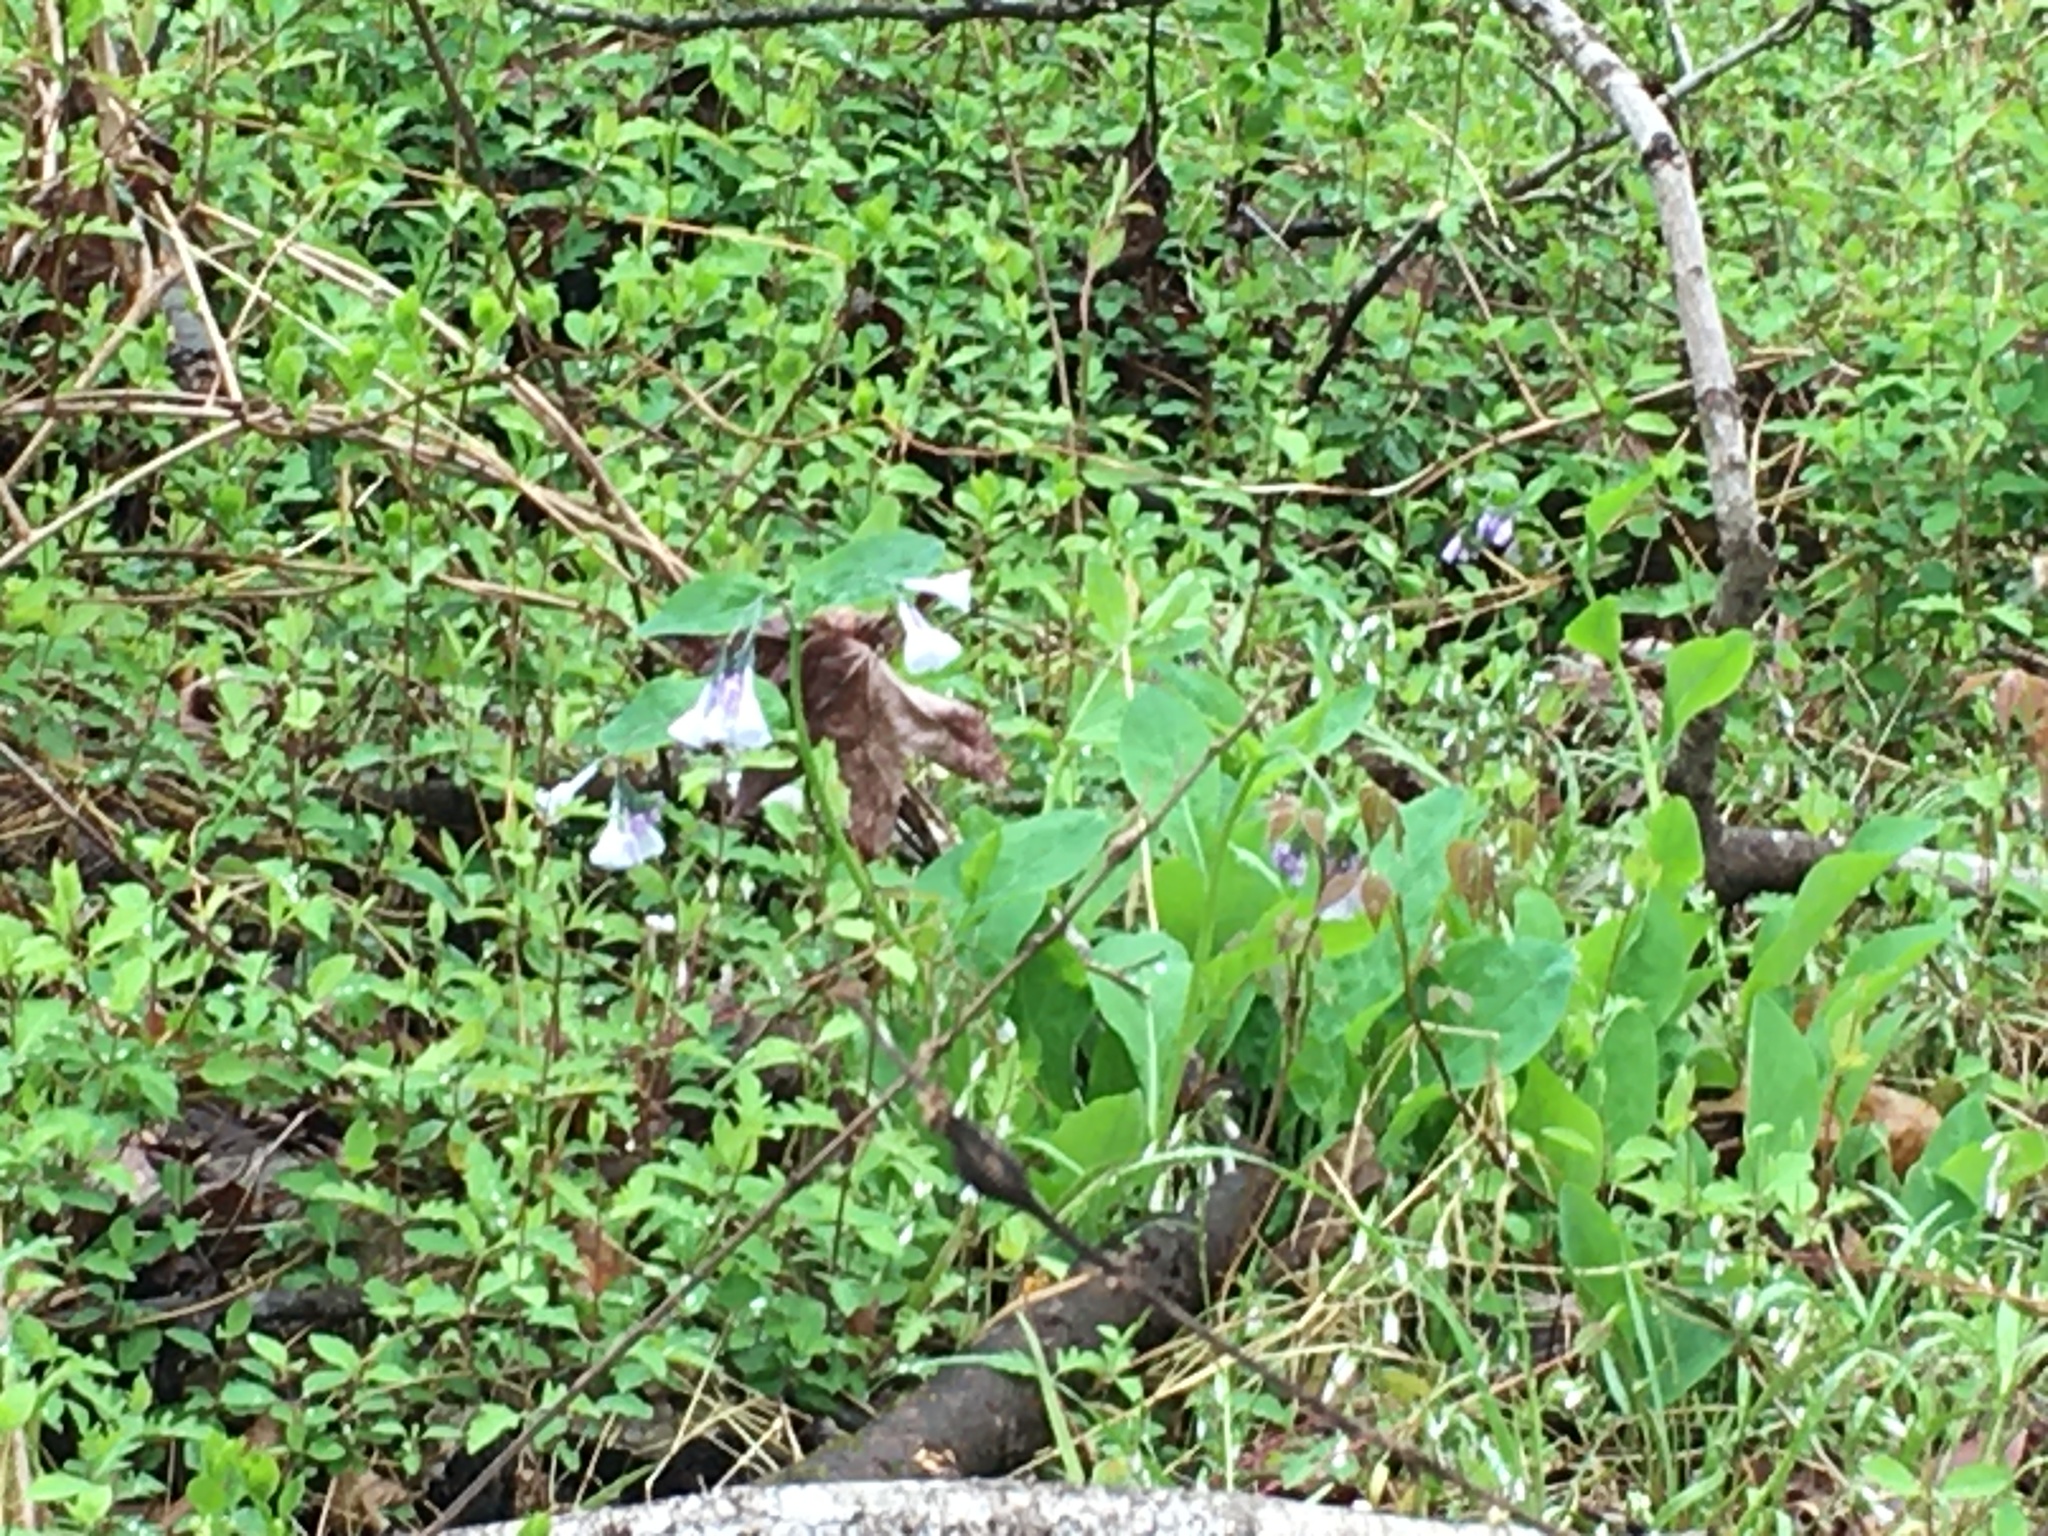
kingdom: Plantae
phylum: Tracheophyta
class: Magnoliopsida
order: Boraginales
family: Boraginaceae
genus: Mertensia
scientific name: Mertensia virginica
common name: Virginia bluebells
